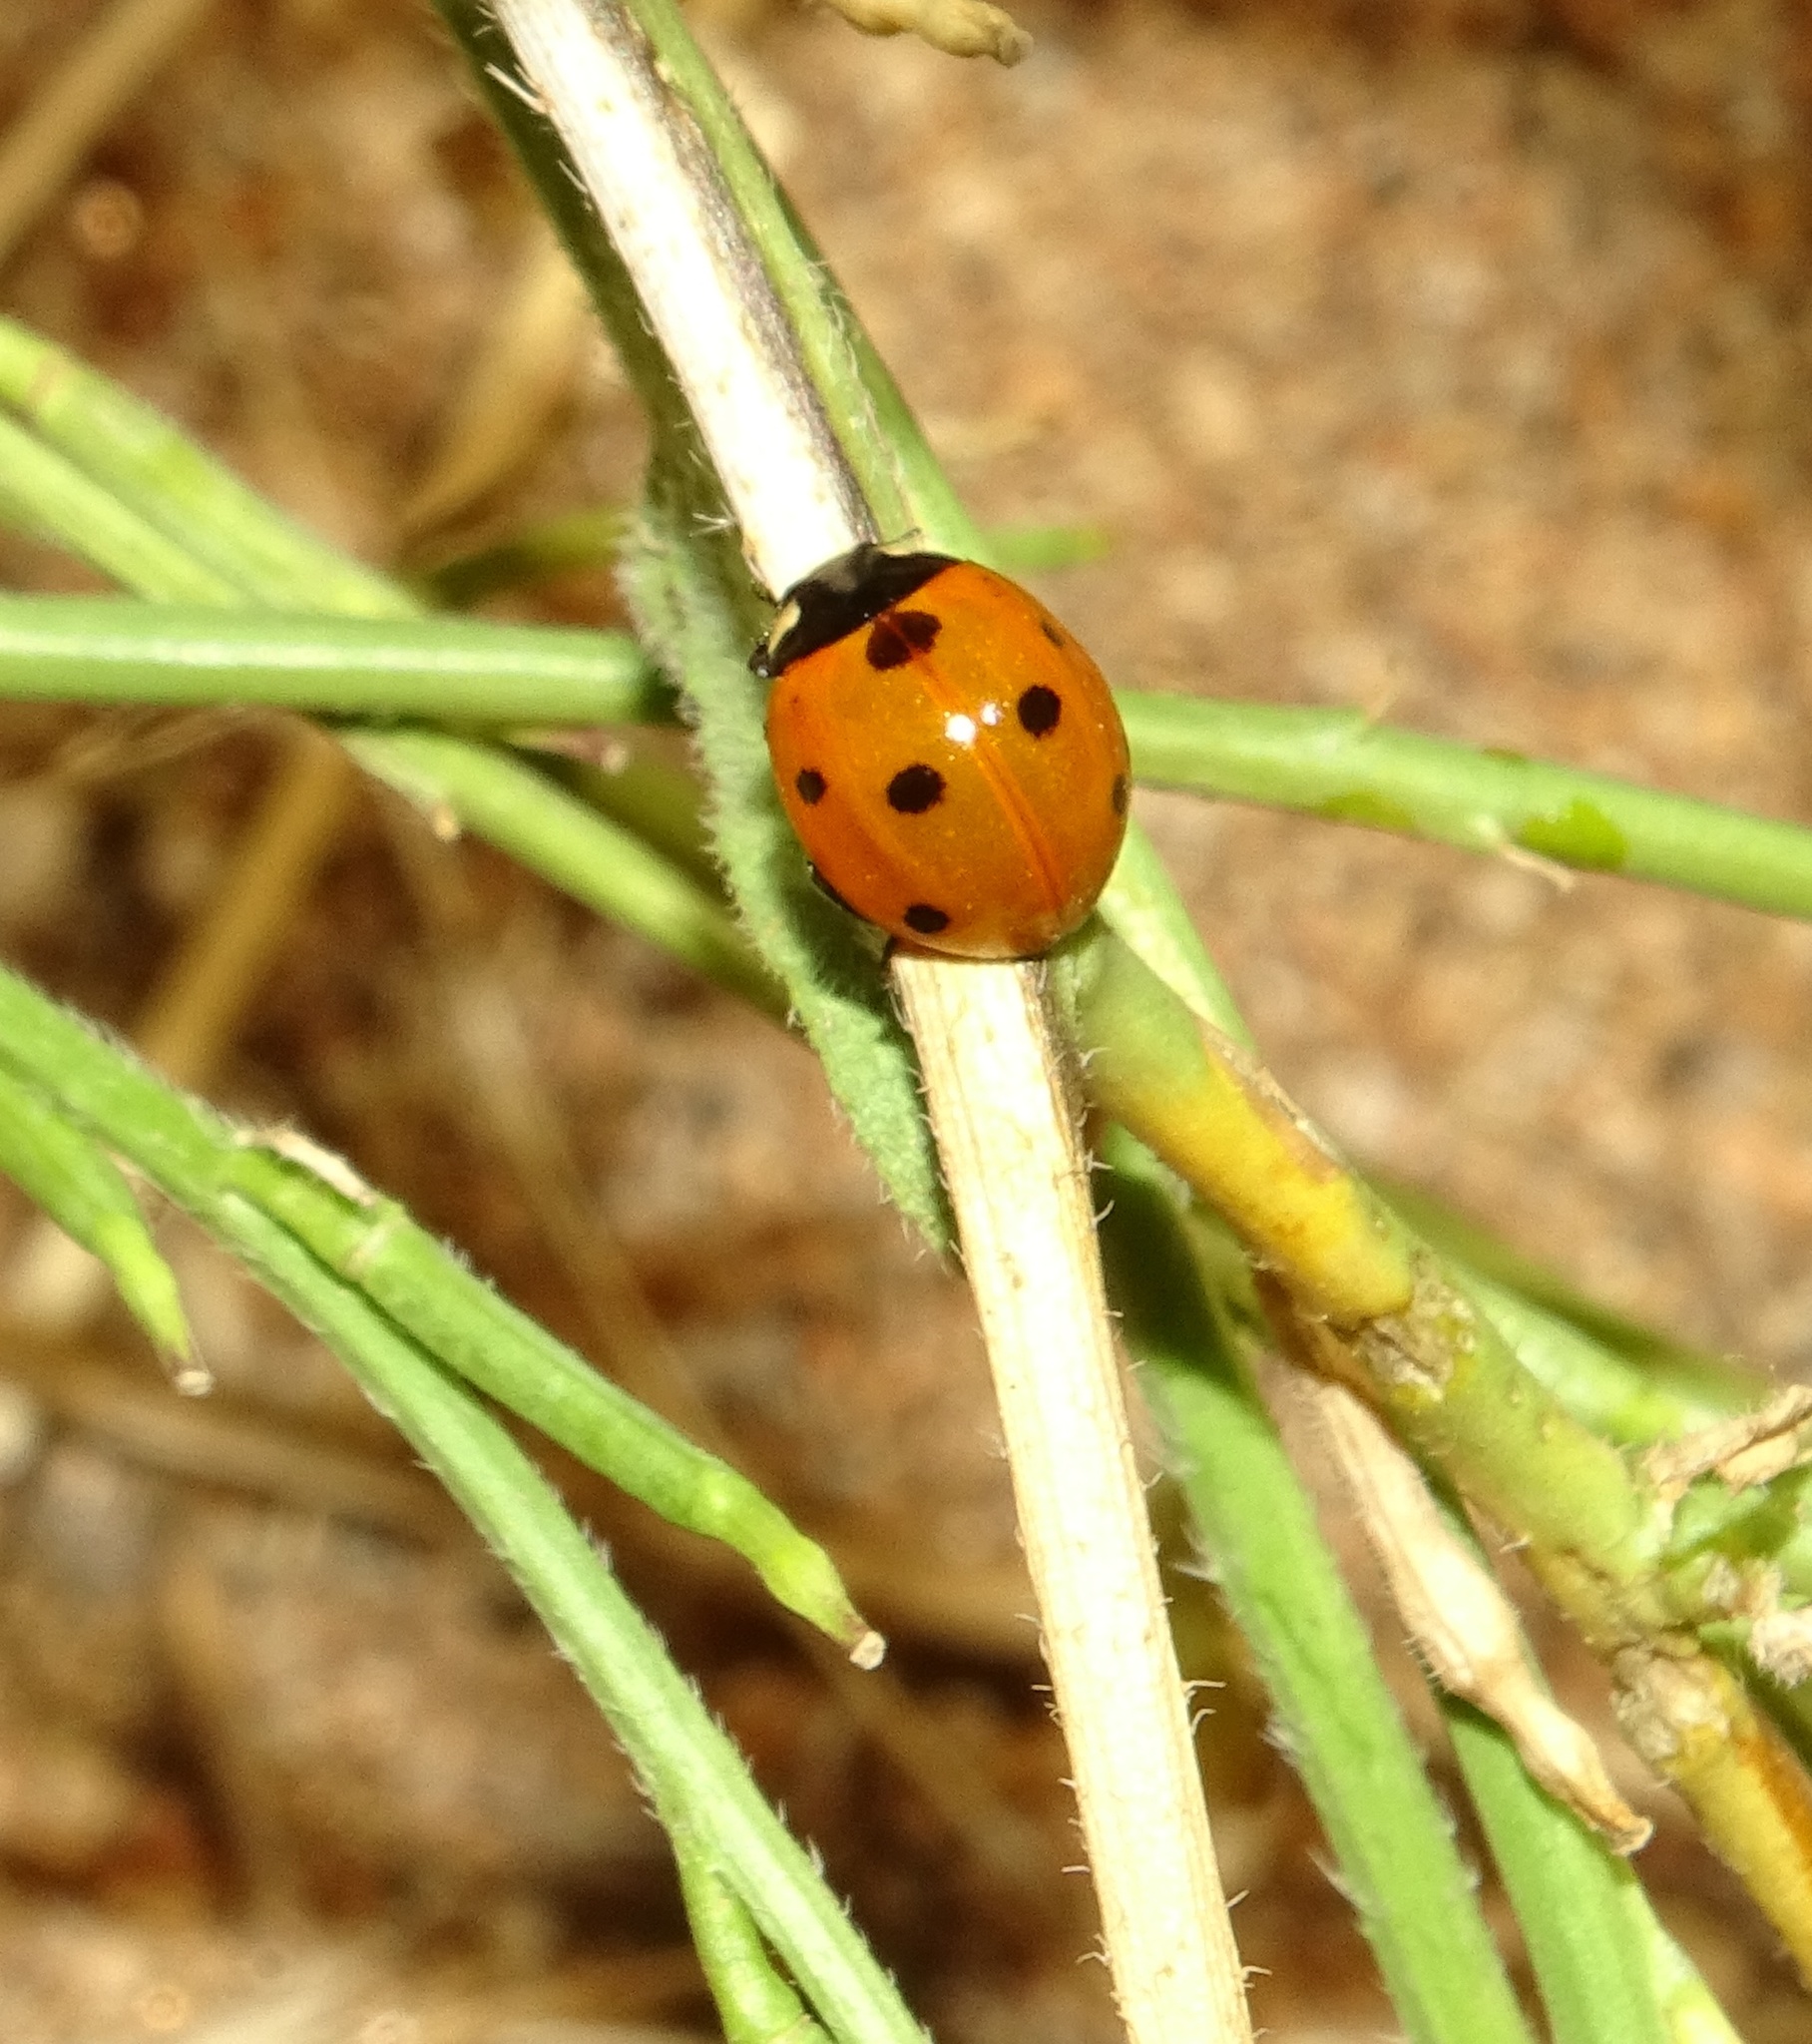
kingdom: Animalia
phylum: Arthropoda
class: Insecta
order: Coleoptera
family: Coccinellidae
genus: Coccinella
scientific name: Coccinella septempunctata
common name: Sevenspotted lady beetle
